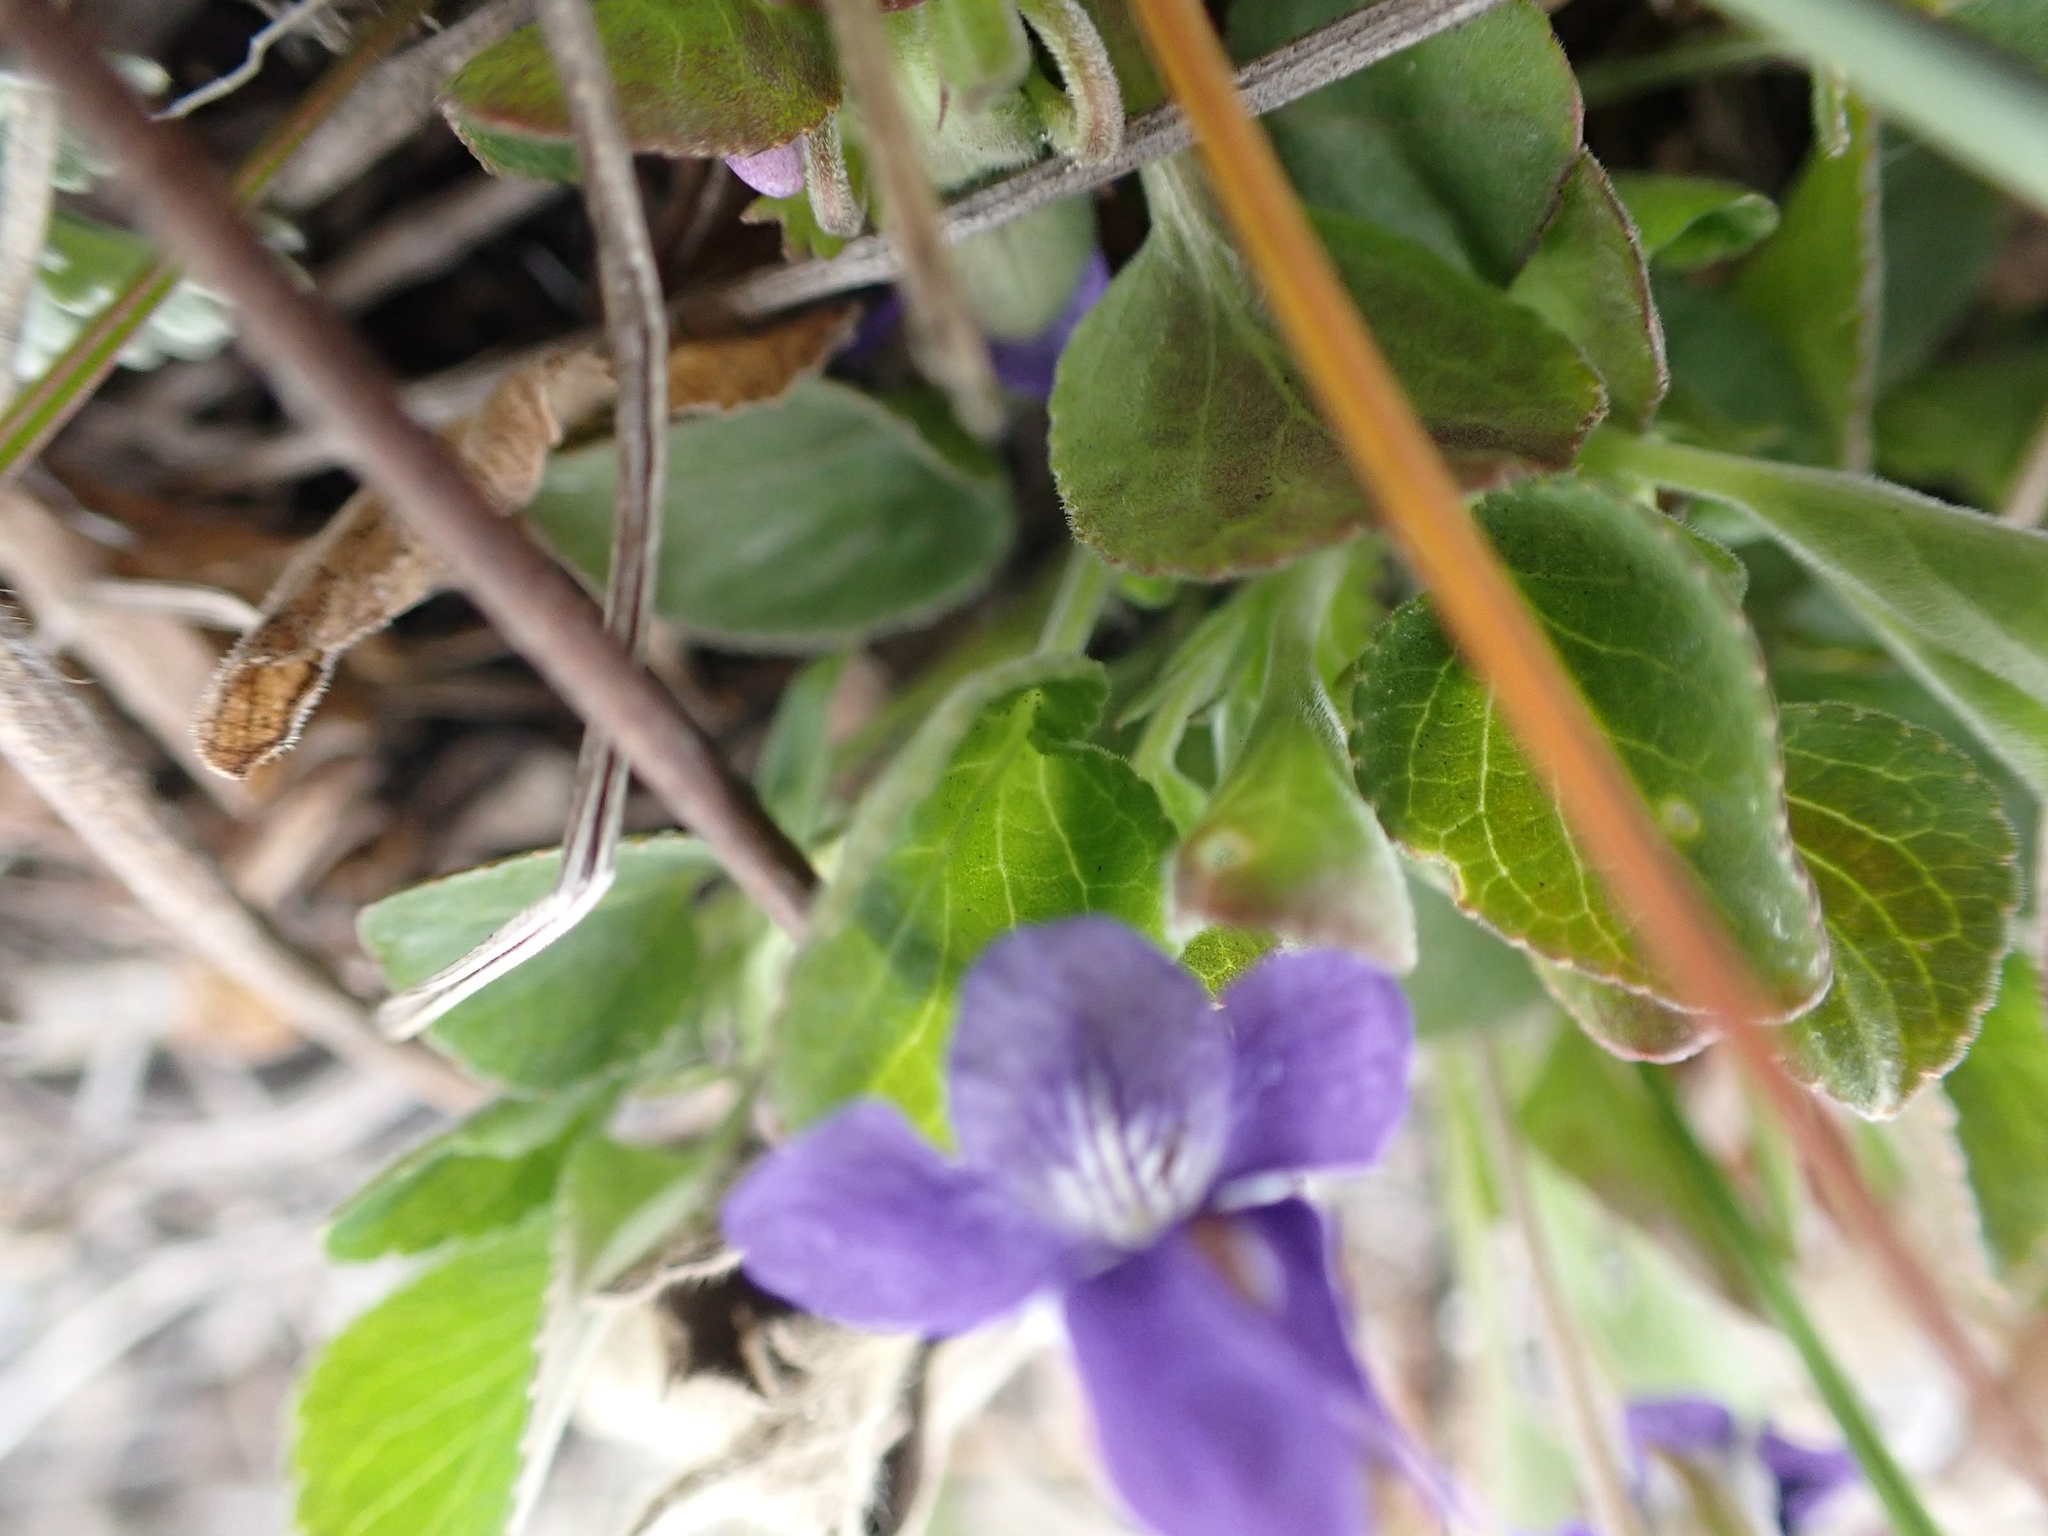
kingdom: Plantae
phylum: Tracheophyta
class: Magnoliopsida
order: Malpighiales
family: Violaceae
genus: Viola
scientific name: Viola adunca
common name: Sand violet
